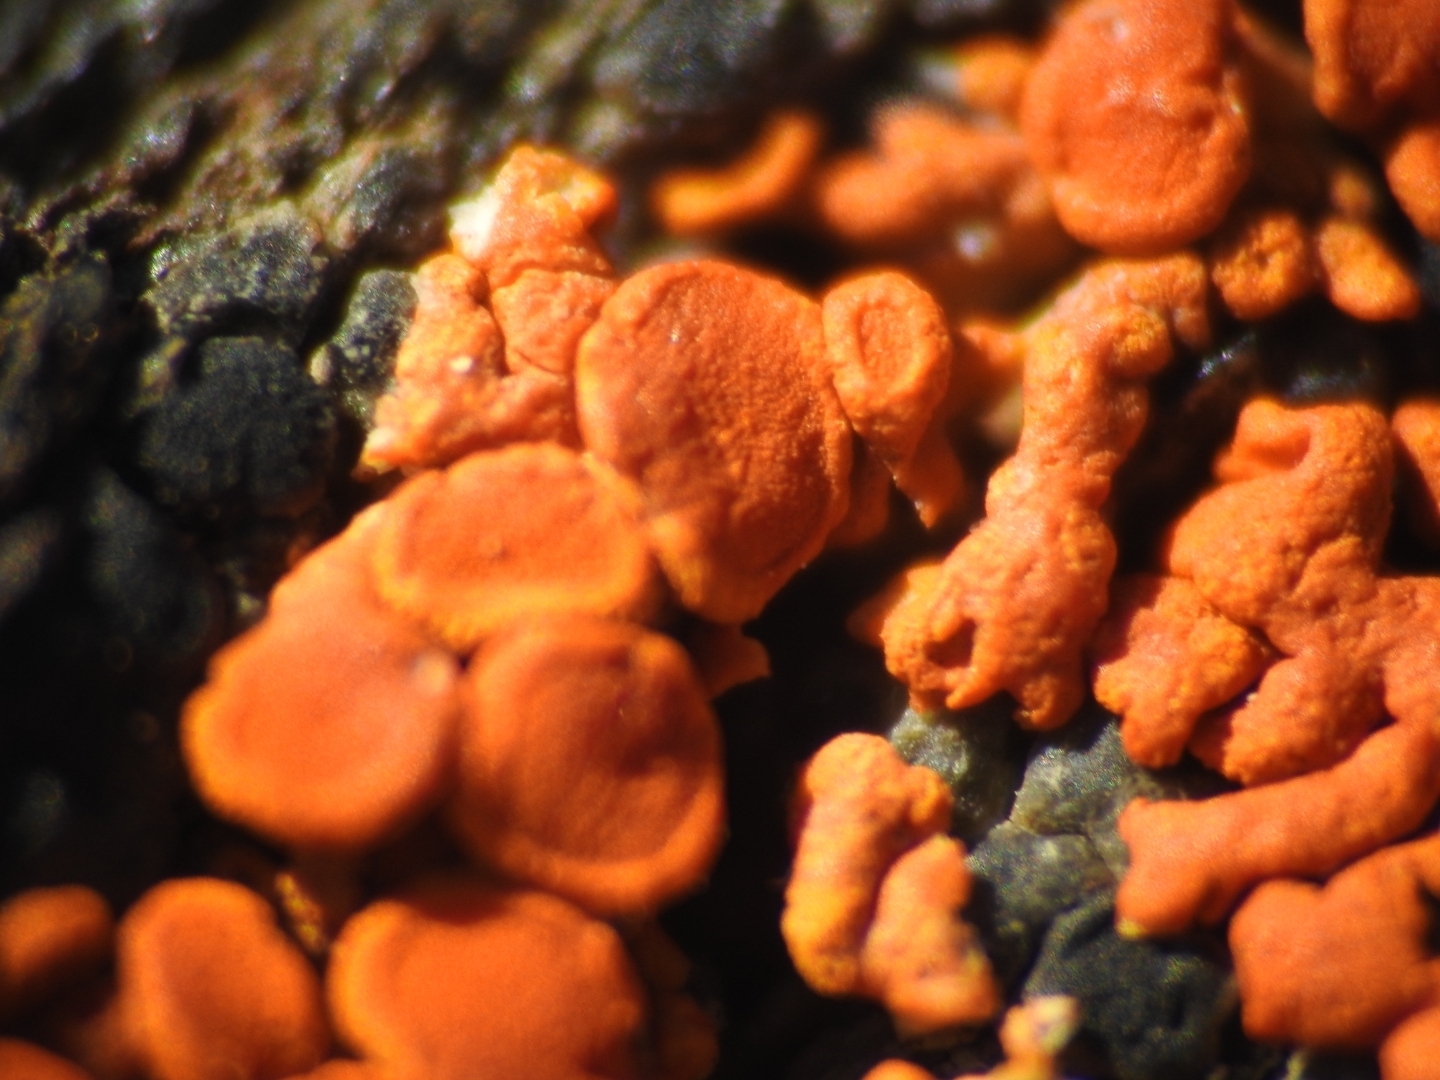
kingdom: Fungi
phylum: Ascomycota
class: Lecanoromycetes
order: Teloschistales
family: Teloschistaceae
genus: Xanthoria
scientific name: Xanthoria elegans
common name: Elegant sunburst lichen
